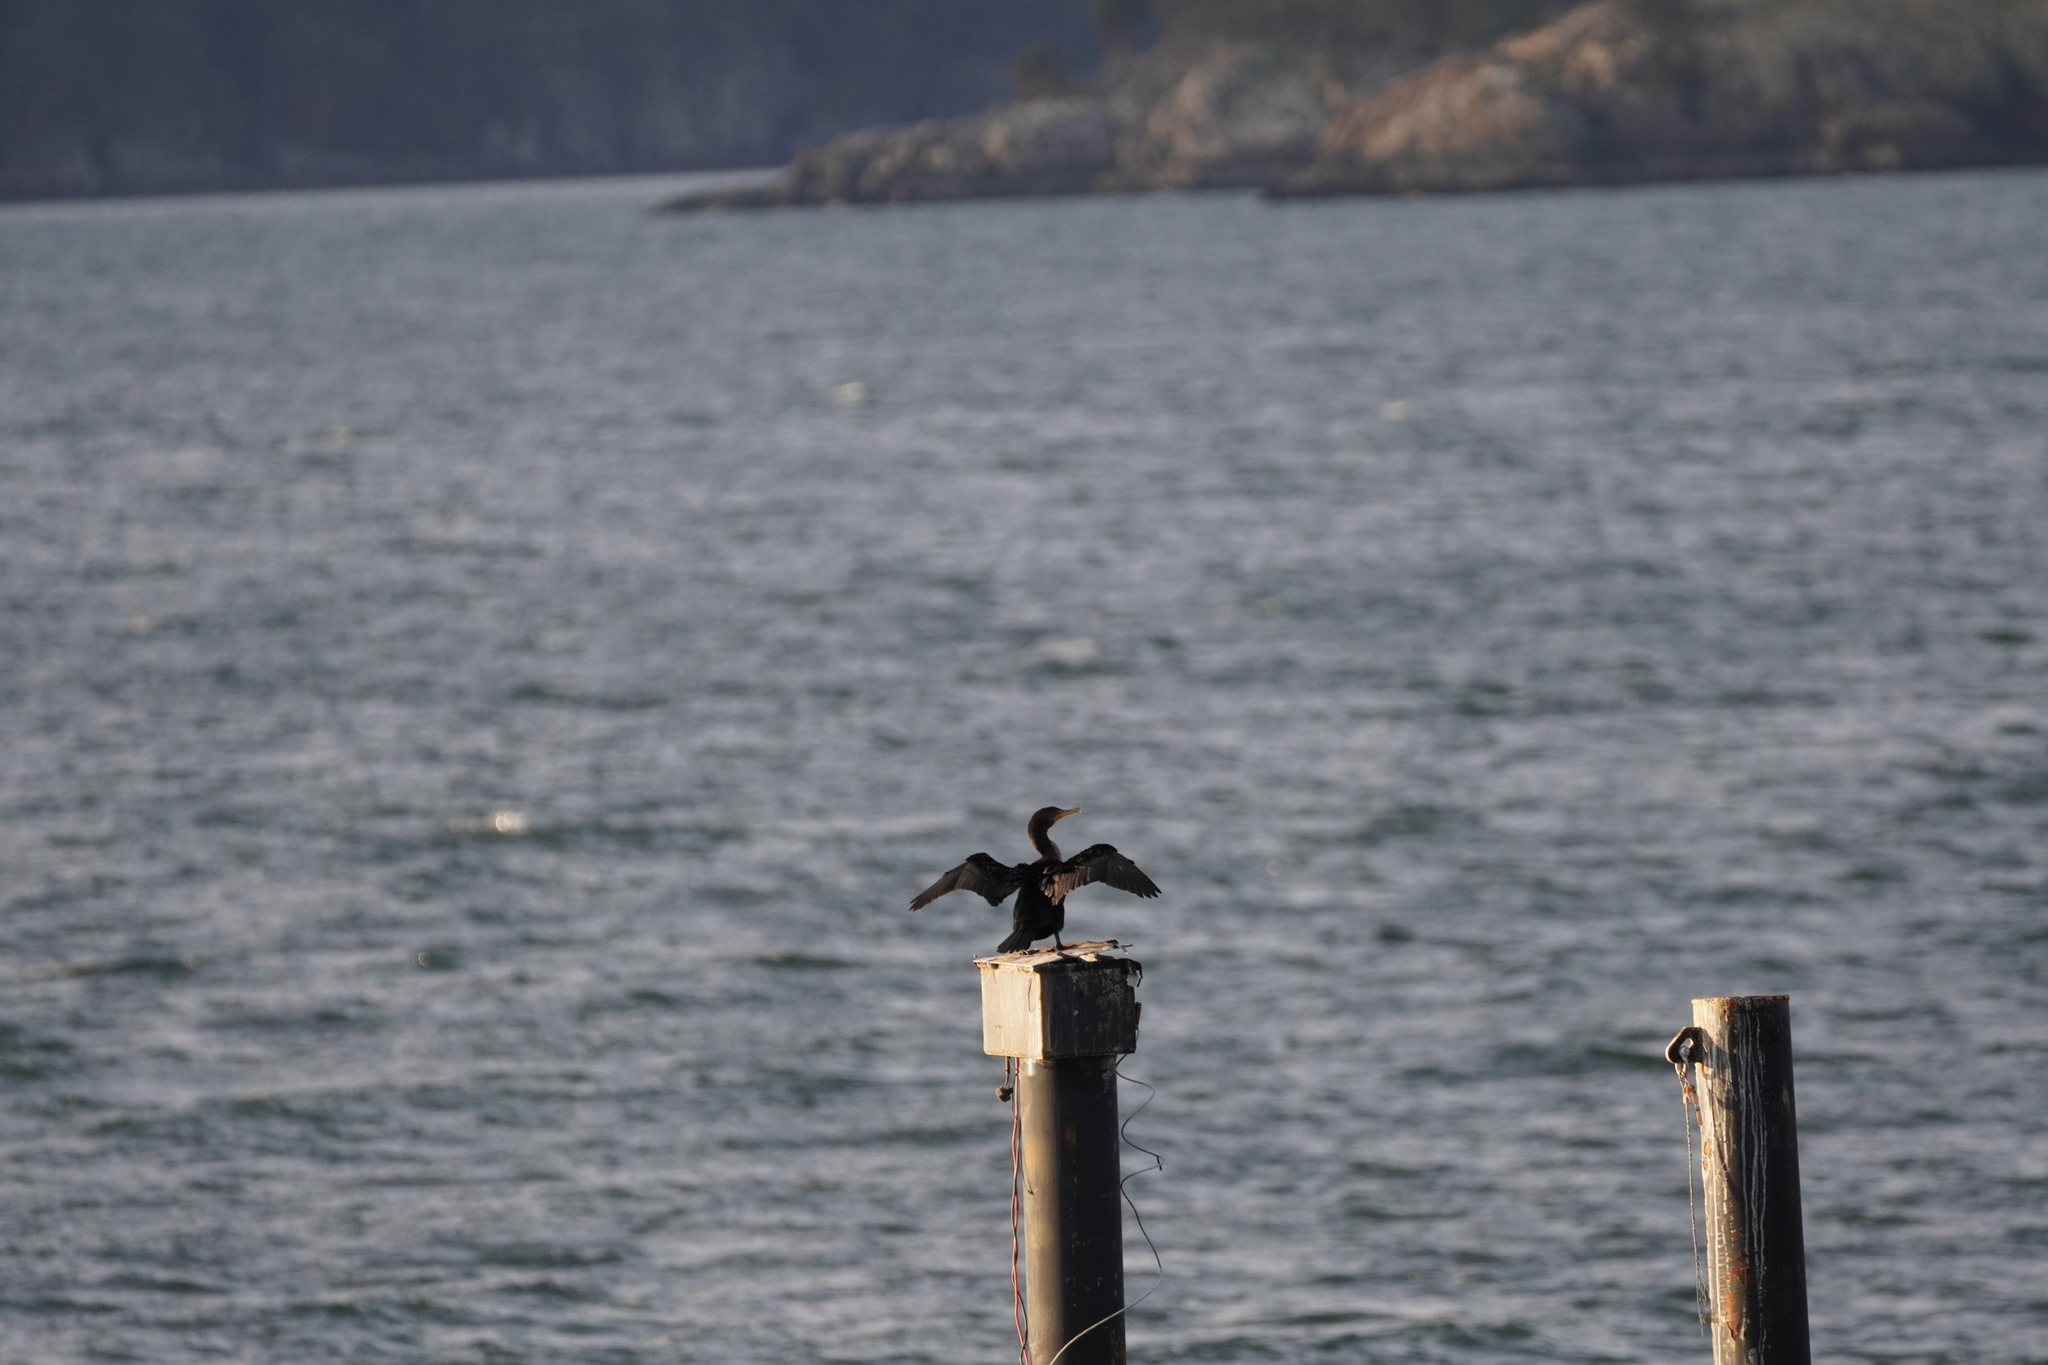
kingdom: Animalia
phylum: Chordata
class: Aves
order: Suliformes
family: Phalacrocoracidae
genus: Phalacrocorax
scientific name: Phalacrocorax auritus
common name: Double-crested cormorant
